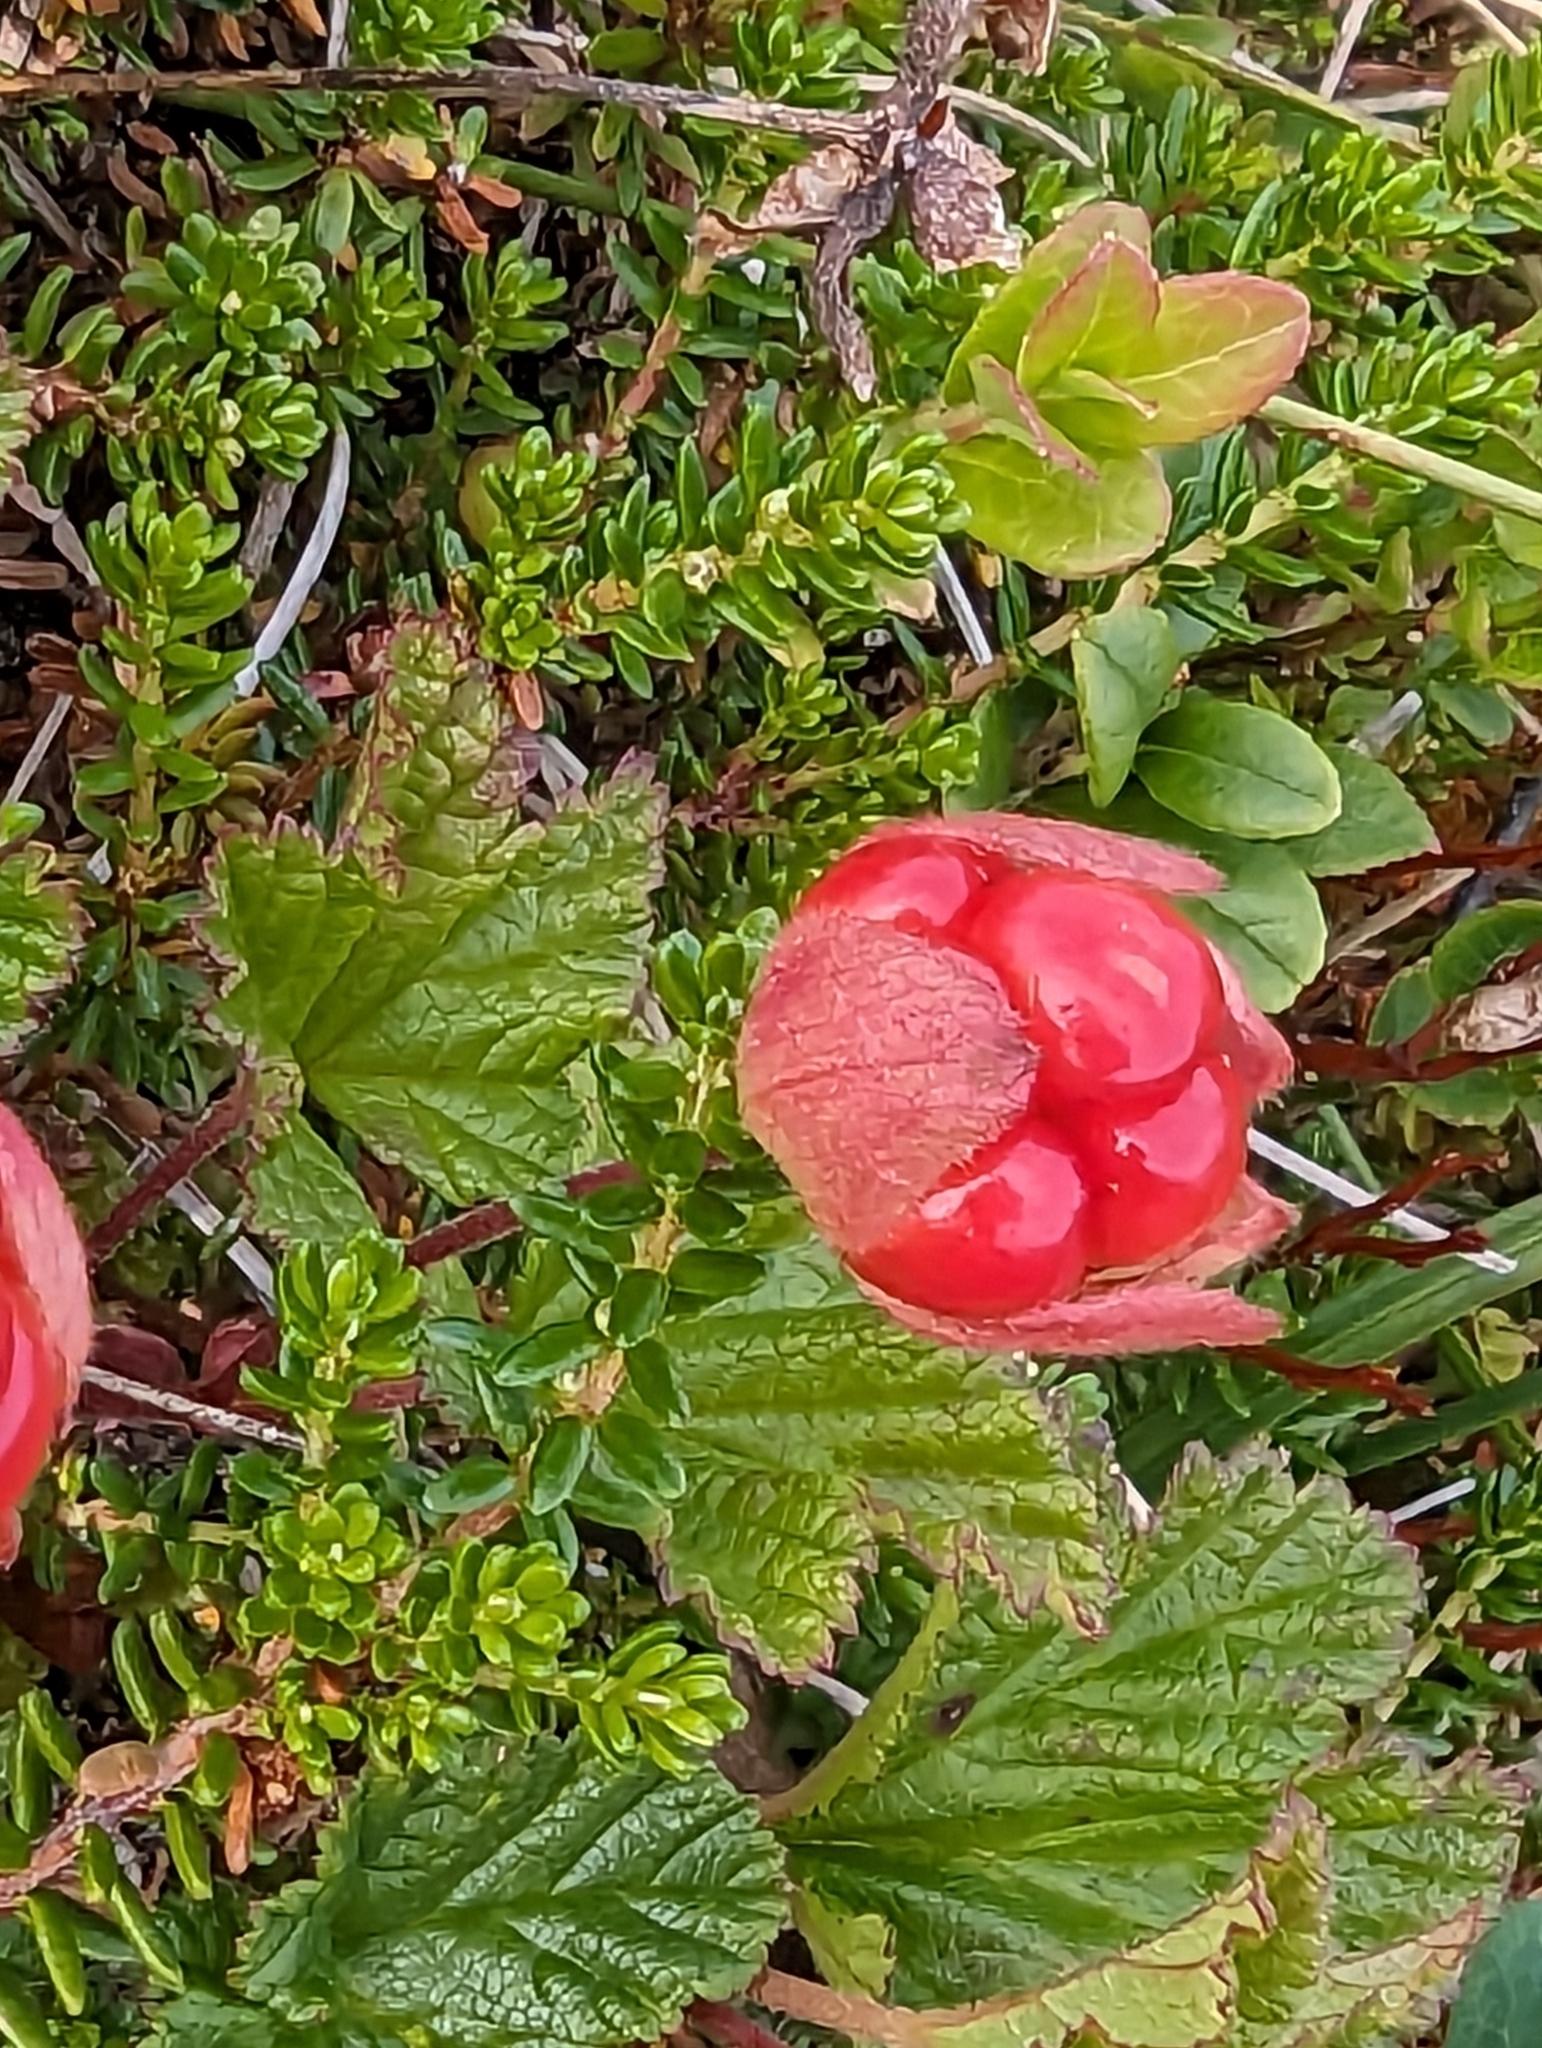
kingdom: Plantae
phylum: Tracheophyta
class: Magnoliopsida
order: Rosales
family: Rosaceae
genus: Rubus
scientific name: Rubus chamaemorus
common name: Cloudberry
